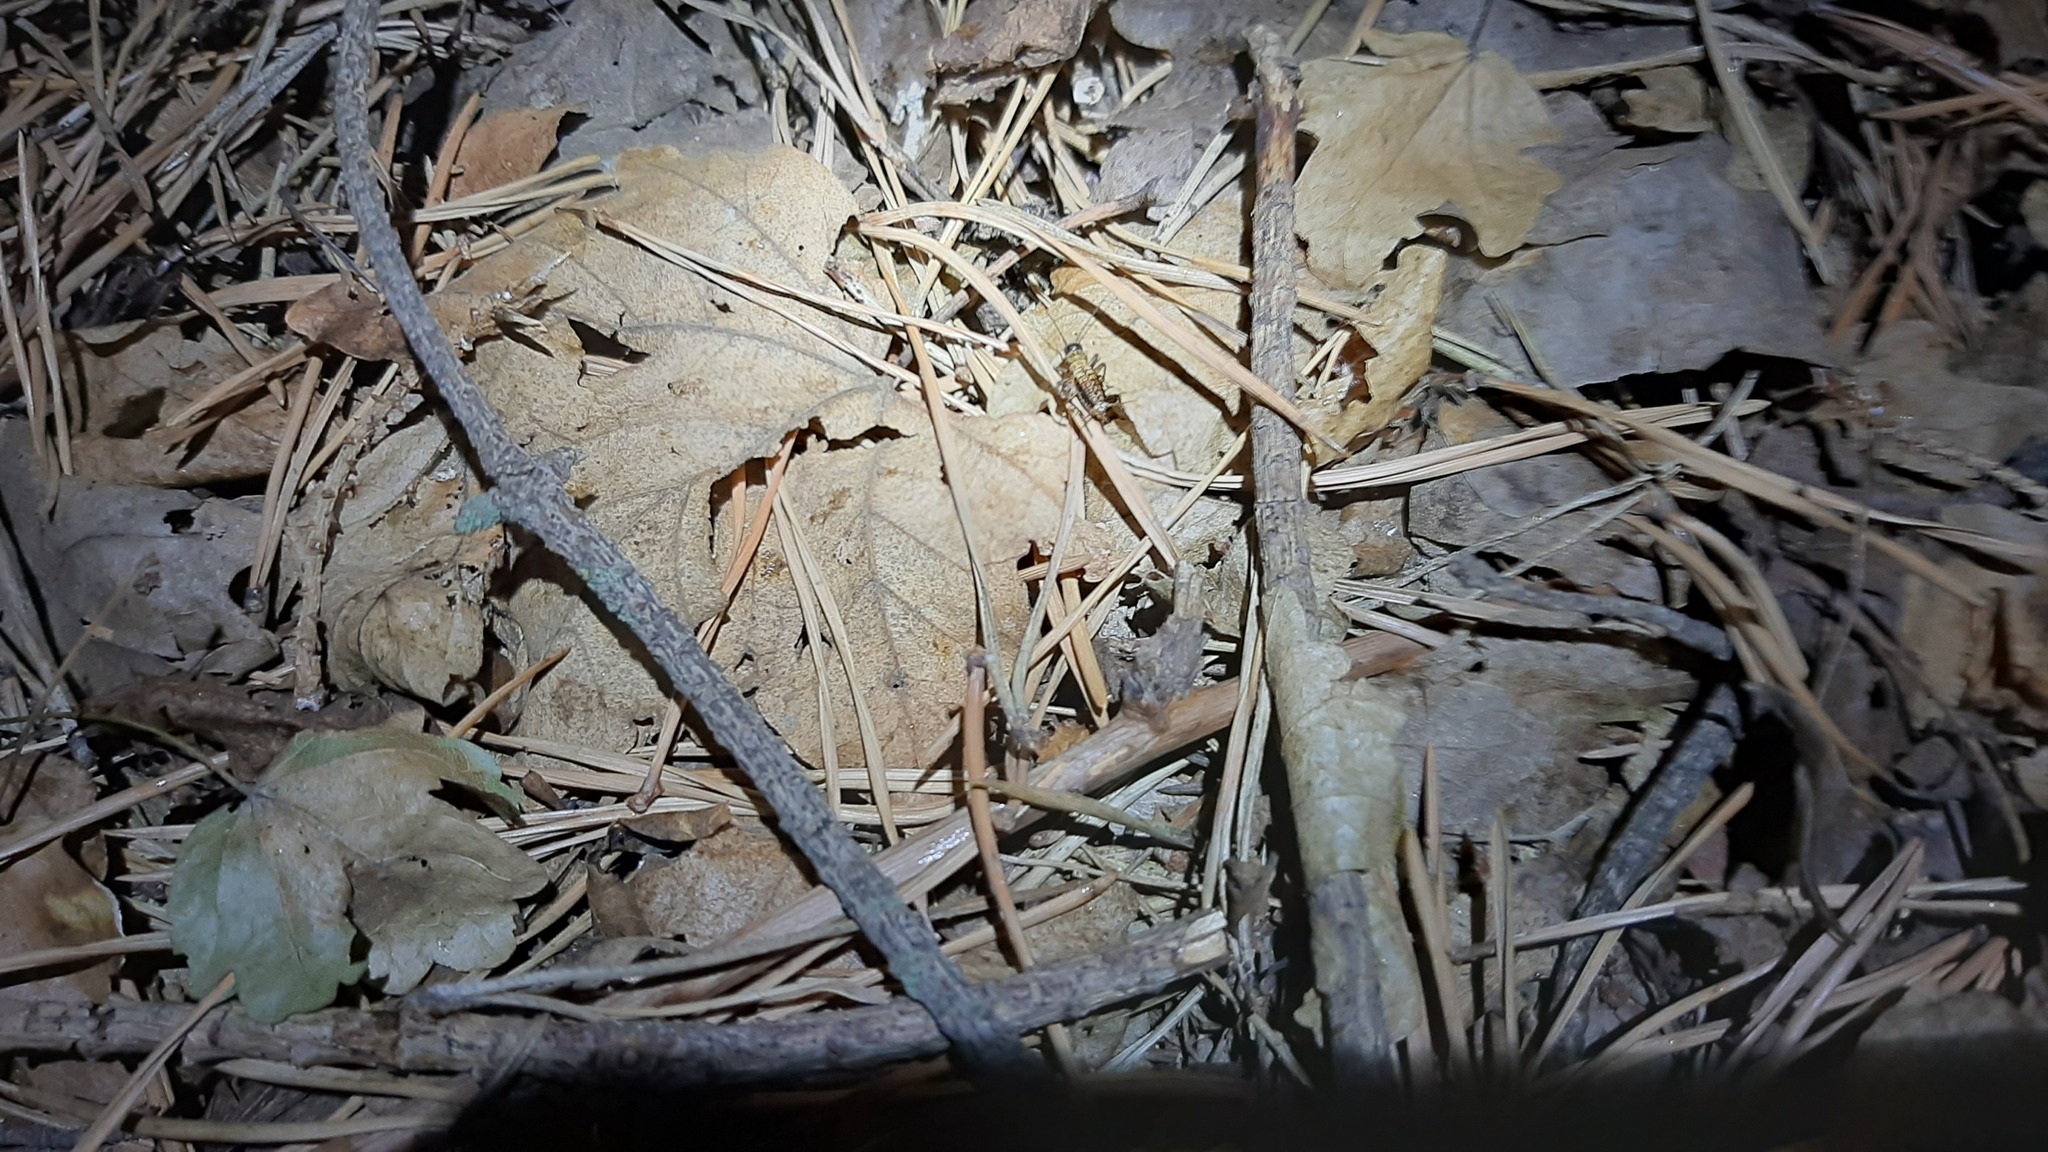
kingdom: Animalia
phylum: Arthropoda
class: Insecta
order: Orthoptera
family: Trigonidiidae
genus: Nemobius
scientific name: Nemobius sylvestris
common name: Wood-cricket
